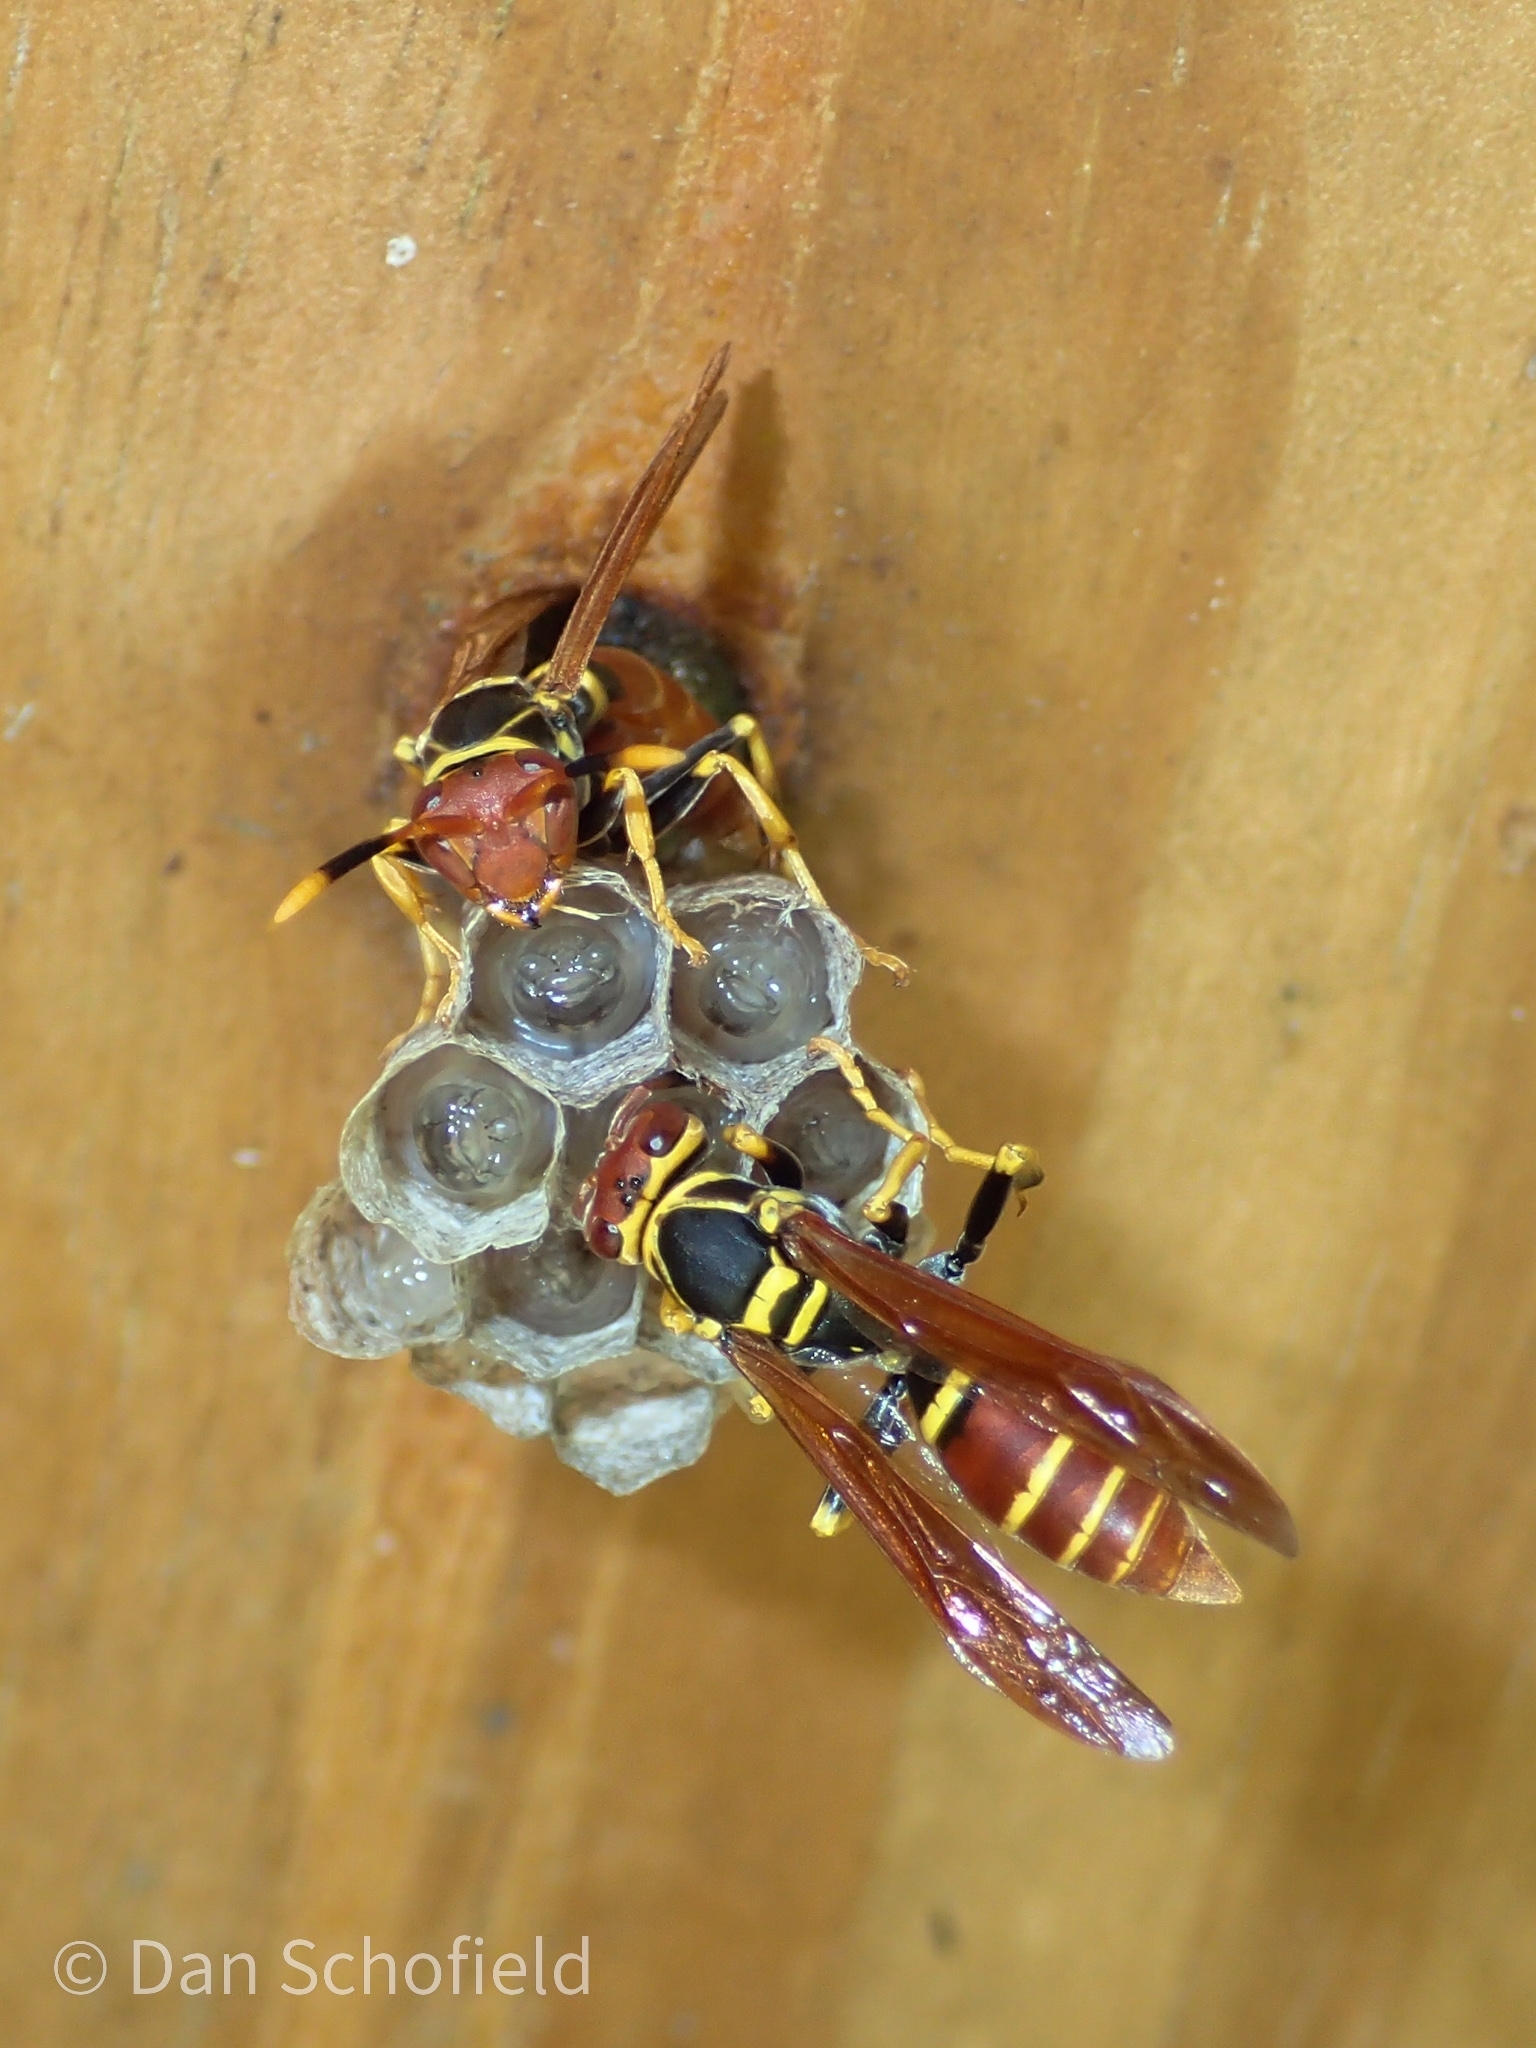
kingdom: Animalia
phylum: Arthropoda
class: Insecta
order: Hymenoptera
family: Eumenidae
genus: Polistes
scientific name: Polistes crinitus
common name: Jack spaniard
